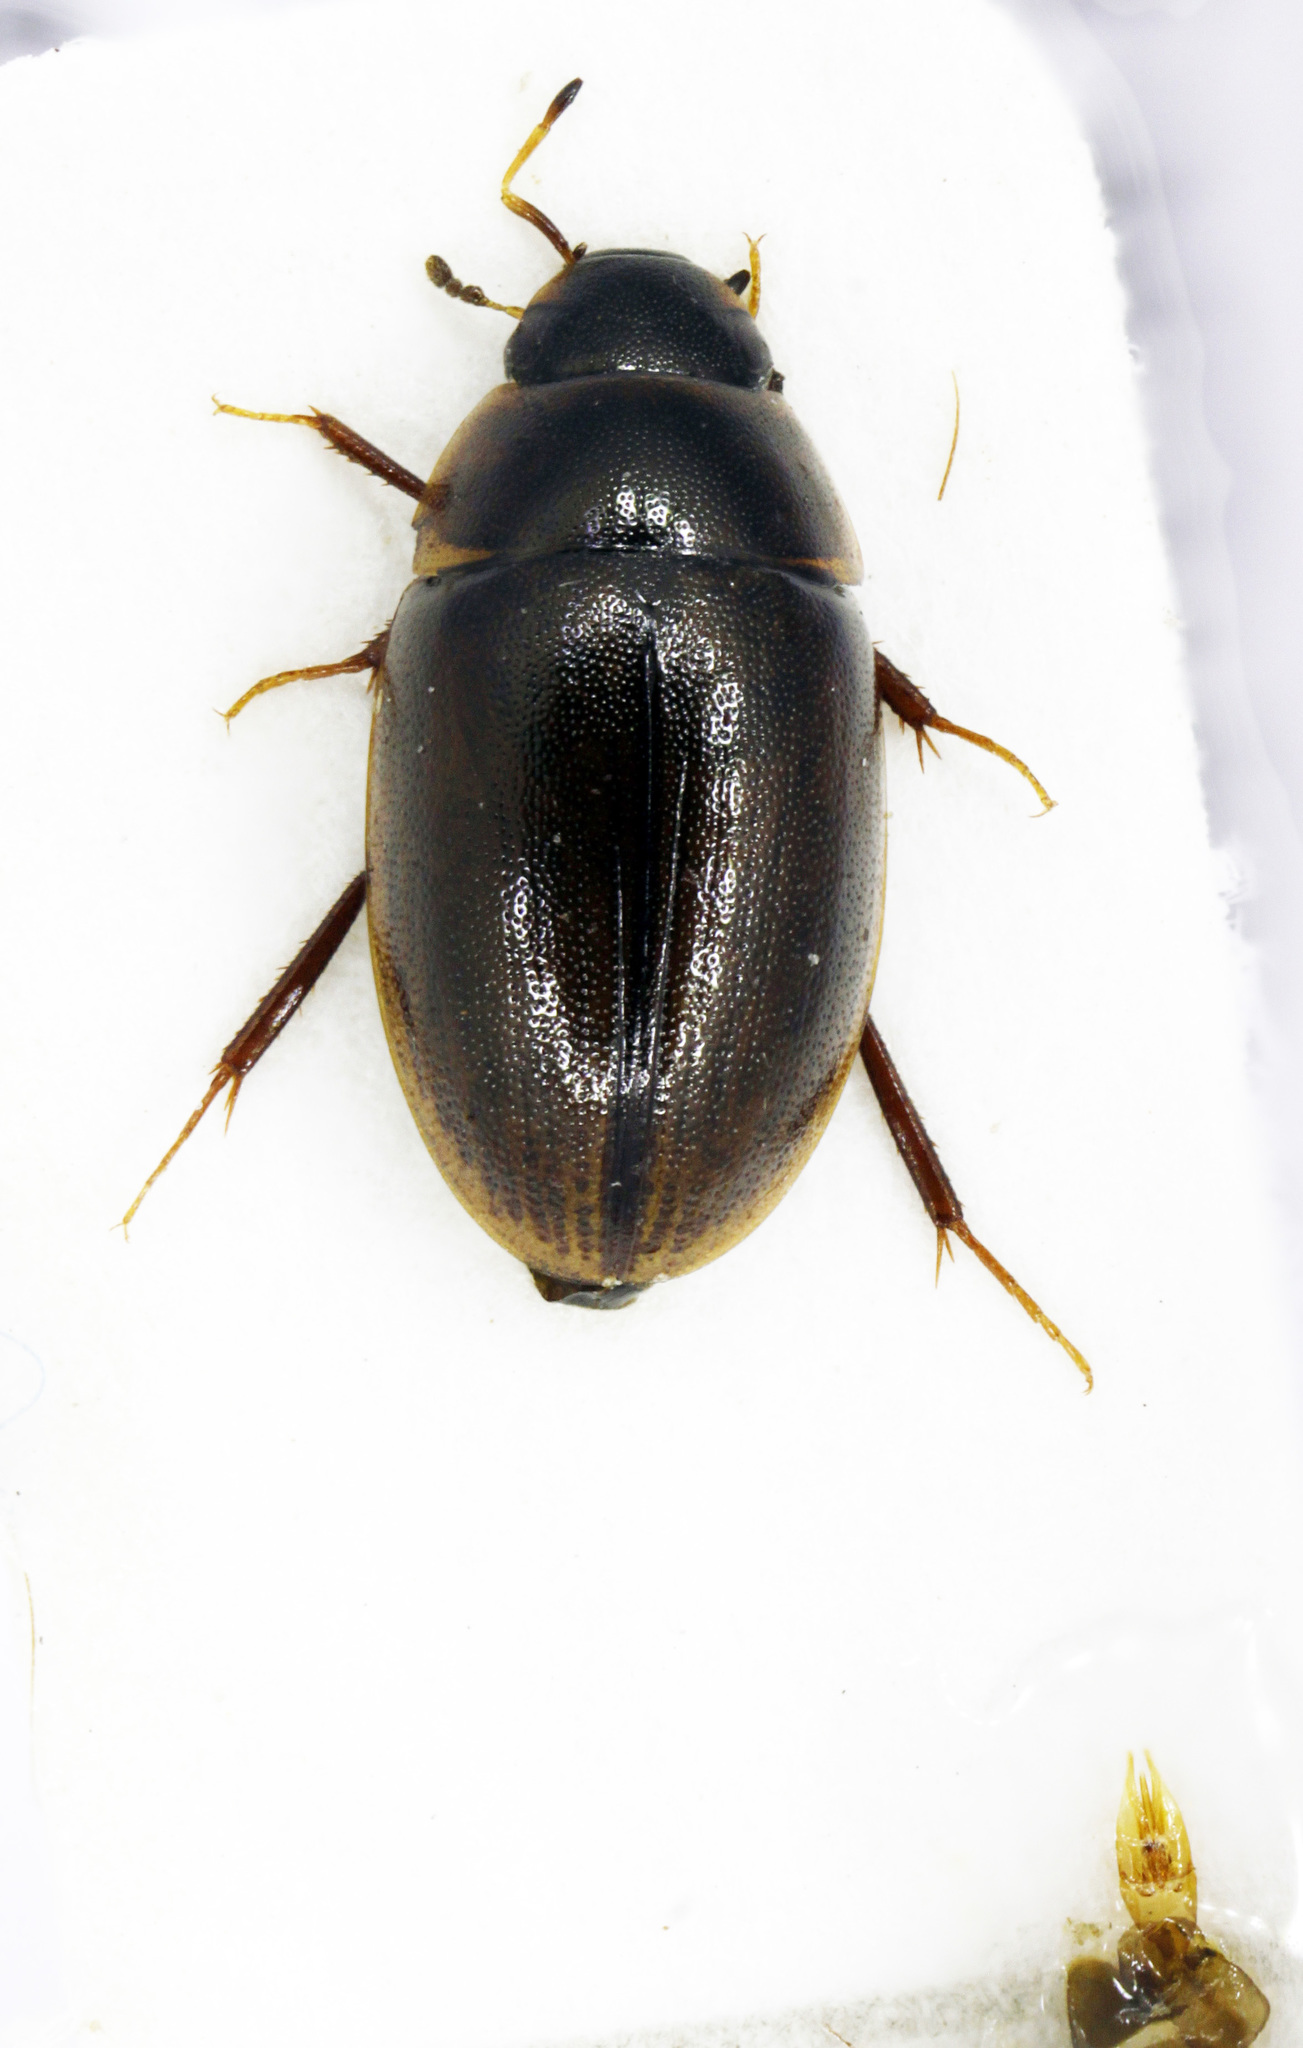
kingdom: Animalia
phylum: Arthropoda
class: Insecta
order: Coleoptera
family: Hydrophilidae
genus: Enochrus
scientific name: Enochrus nigritus
